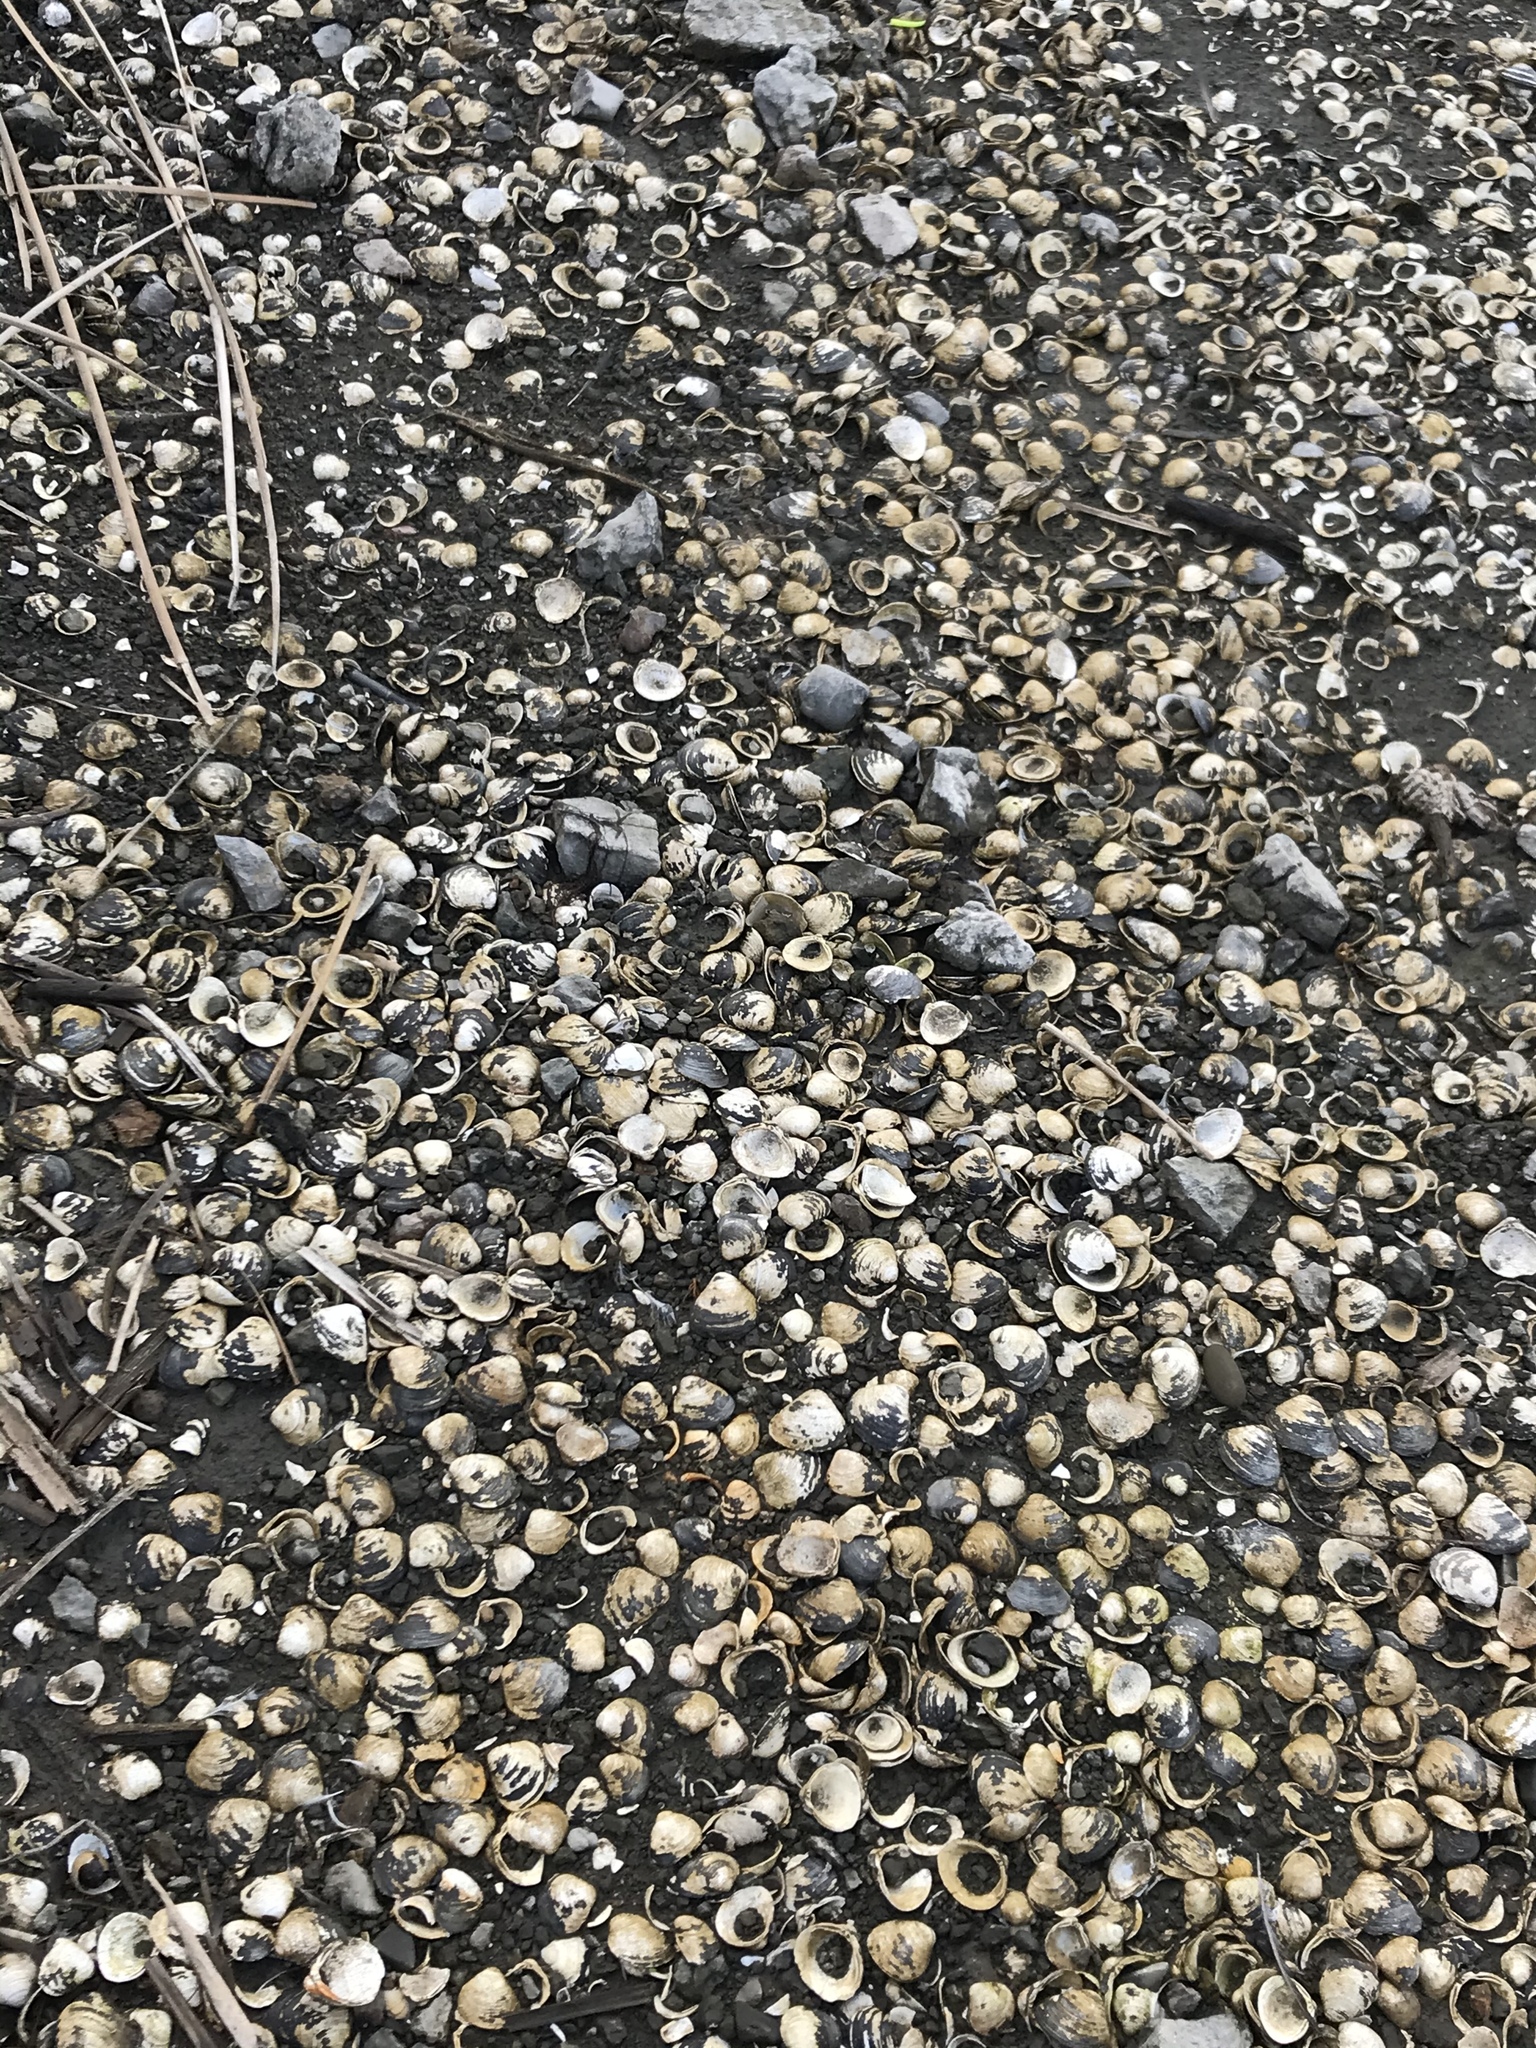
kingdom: Animalia
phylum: Mollusca
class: Bivalvia
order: Venerida
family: Cyrenidae
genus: Corbicula
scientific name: Corbicula fluminea
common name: Asian clam
